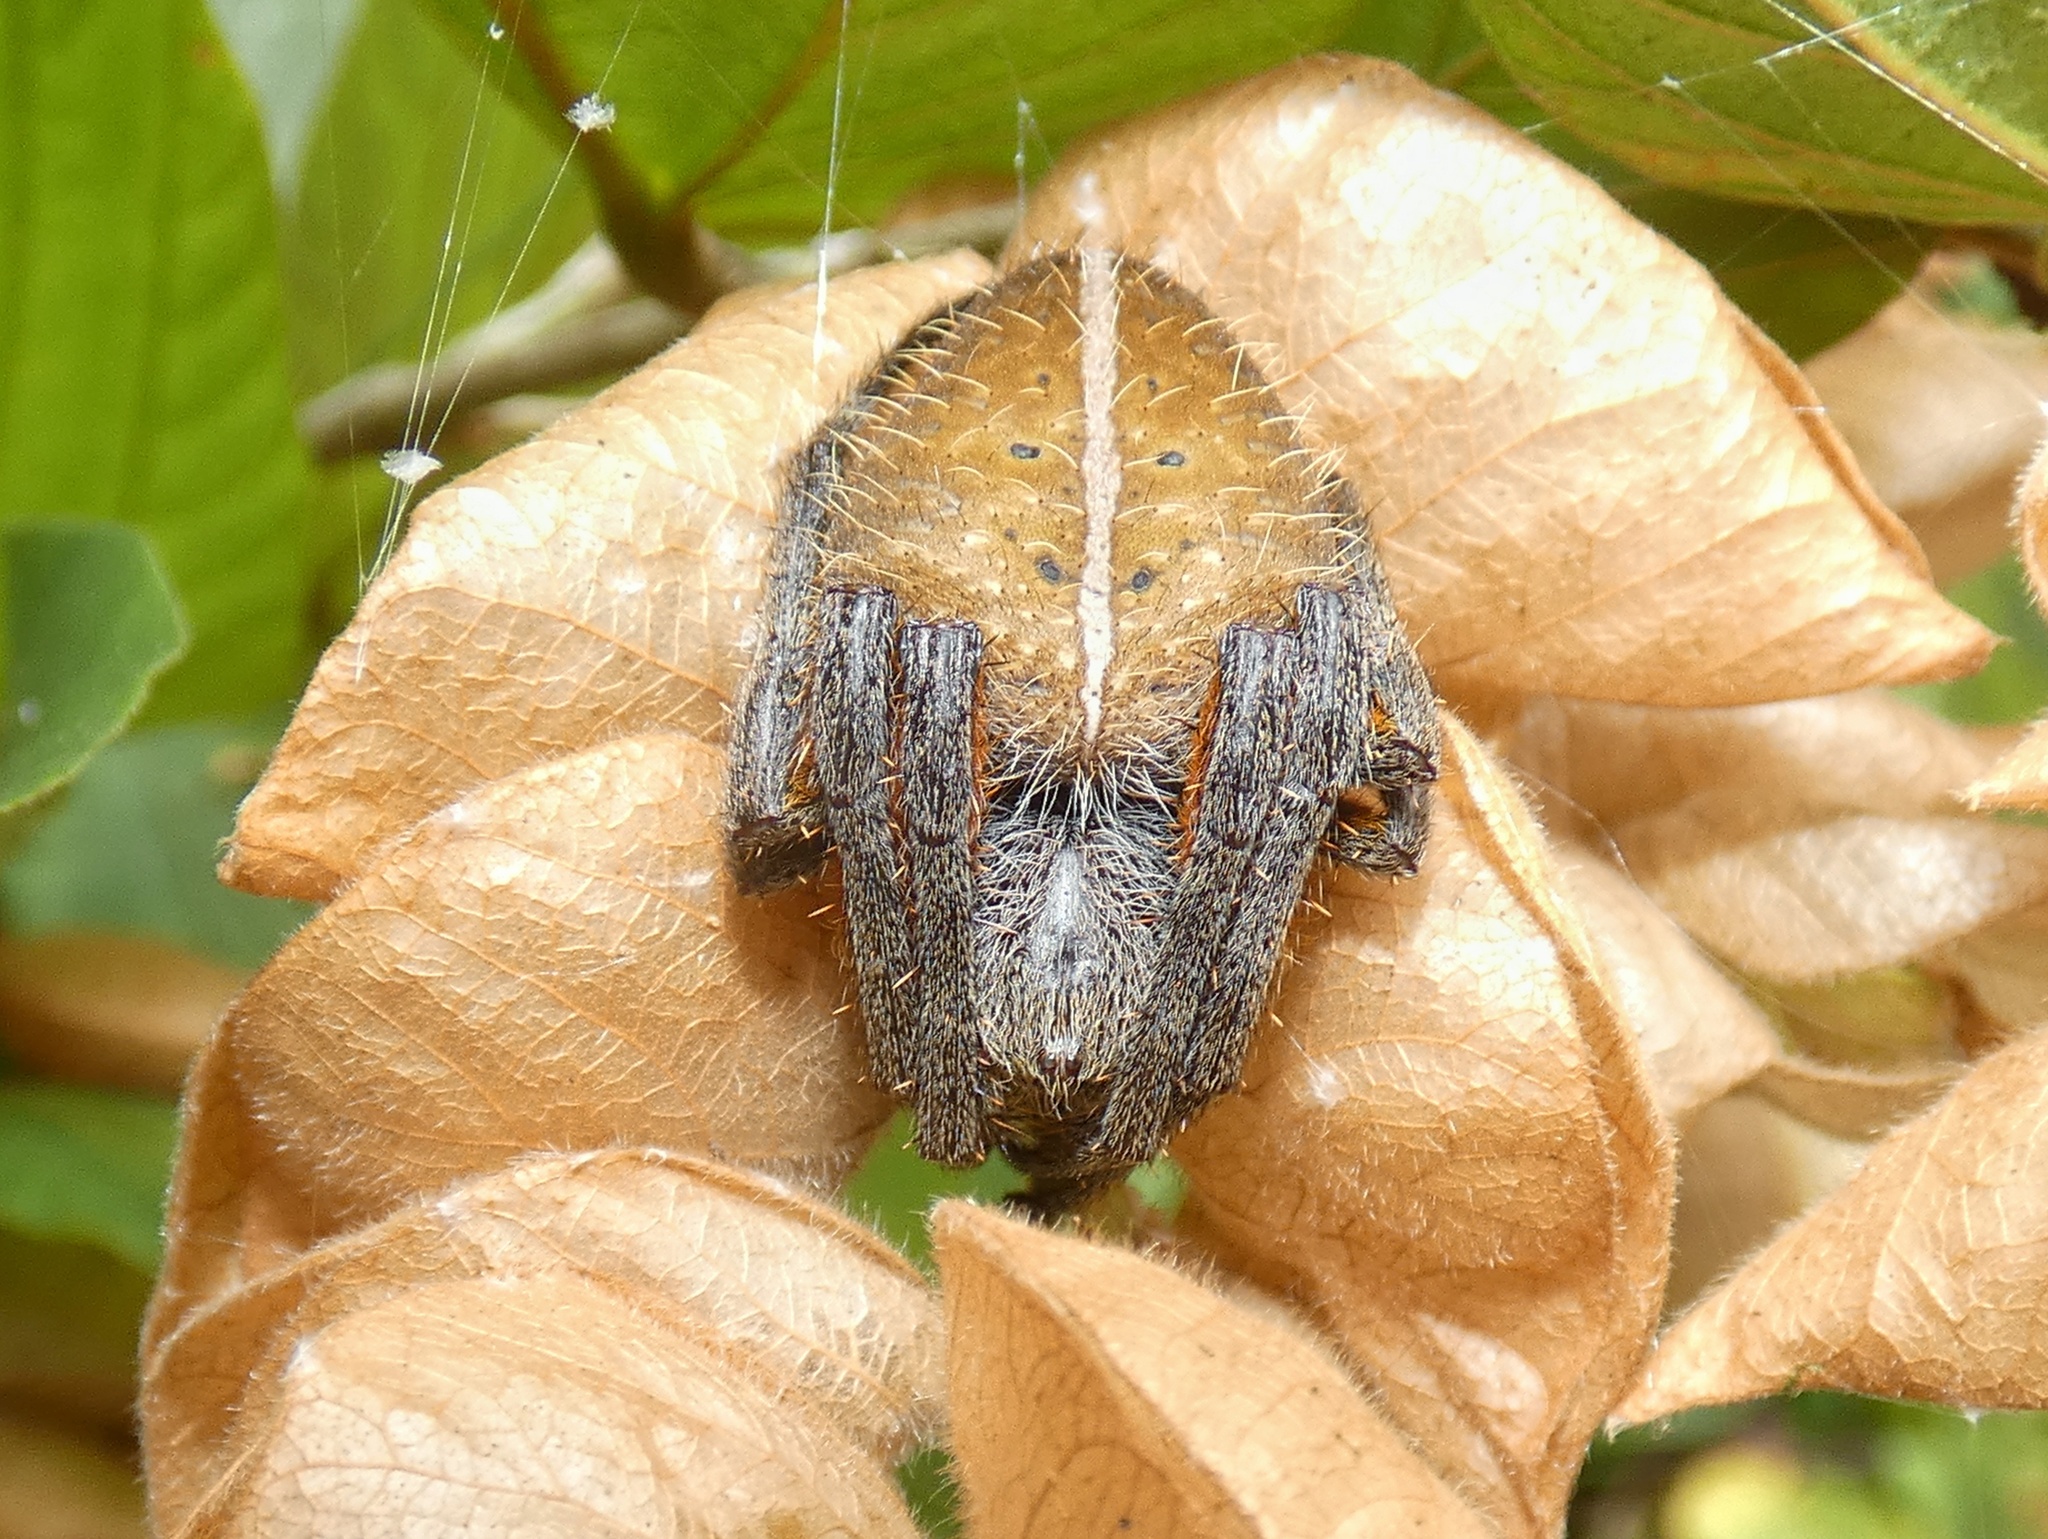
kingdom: Animalia
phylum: Arthropoda
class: Arachnida
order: Araneae
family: Araneidae
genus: Eriophora
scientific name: Eriophora fuliginea
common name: Orb weavers
